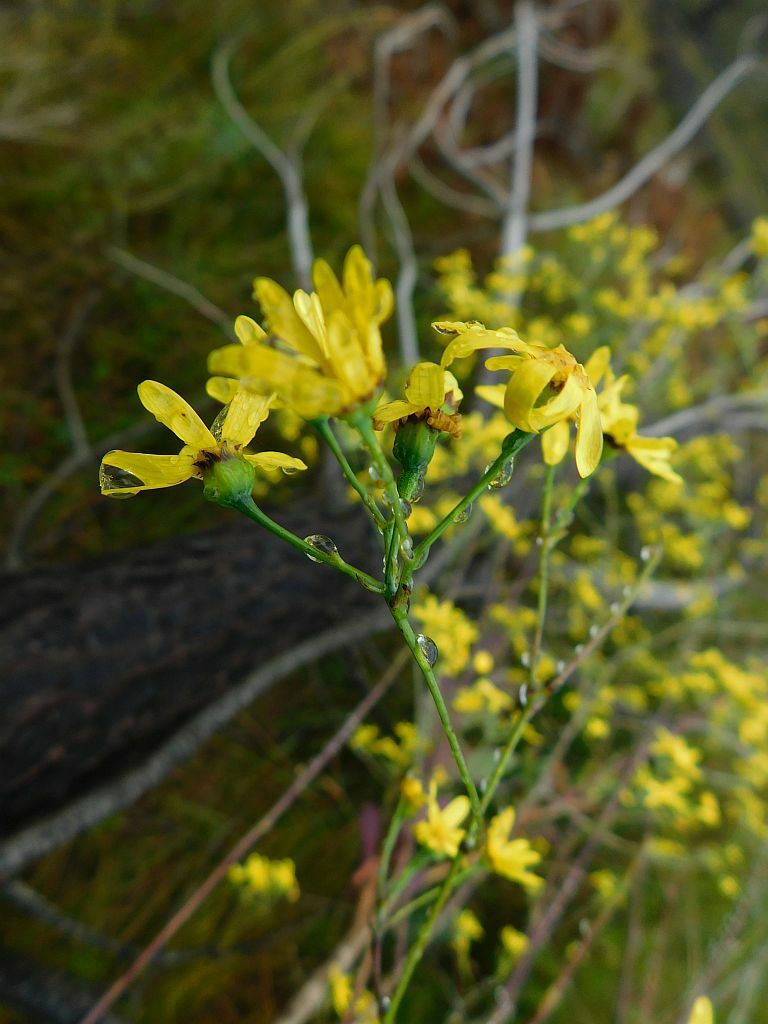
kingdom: Plantae
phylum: Tracheophyta
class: Magnoliopsida
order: Asterales
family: Asteraceae
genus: Othonna
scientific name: Othonna quinquedentata
